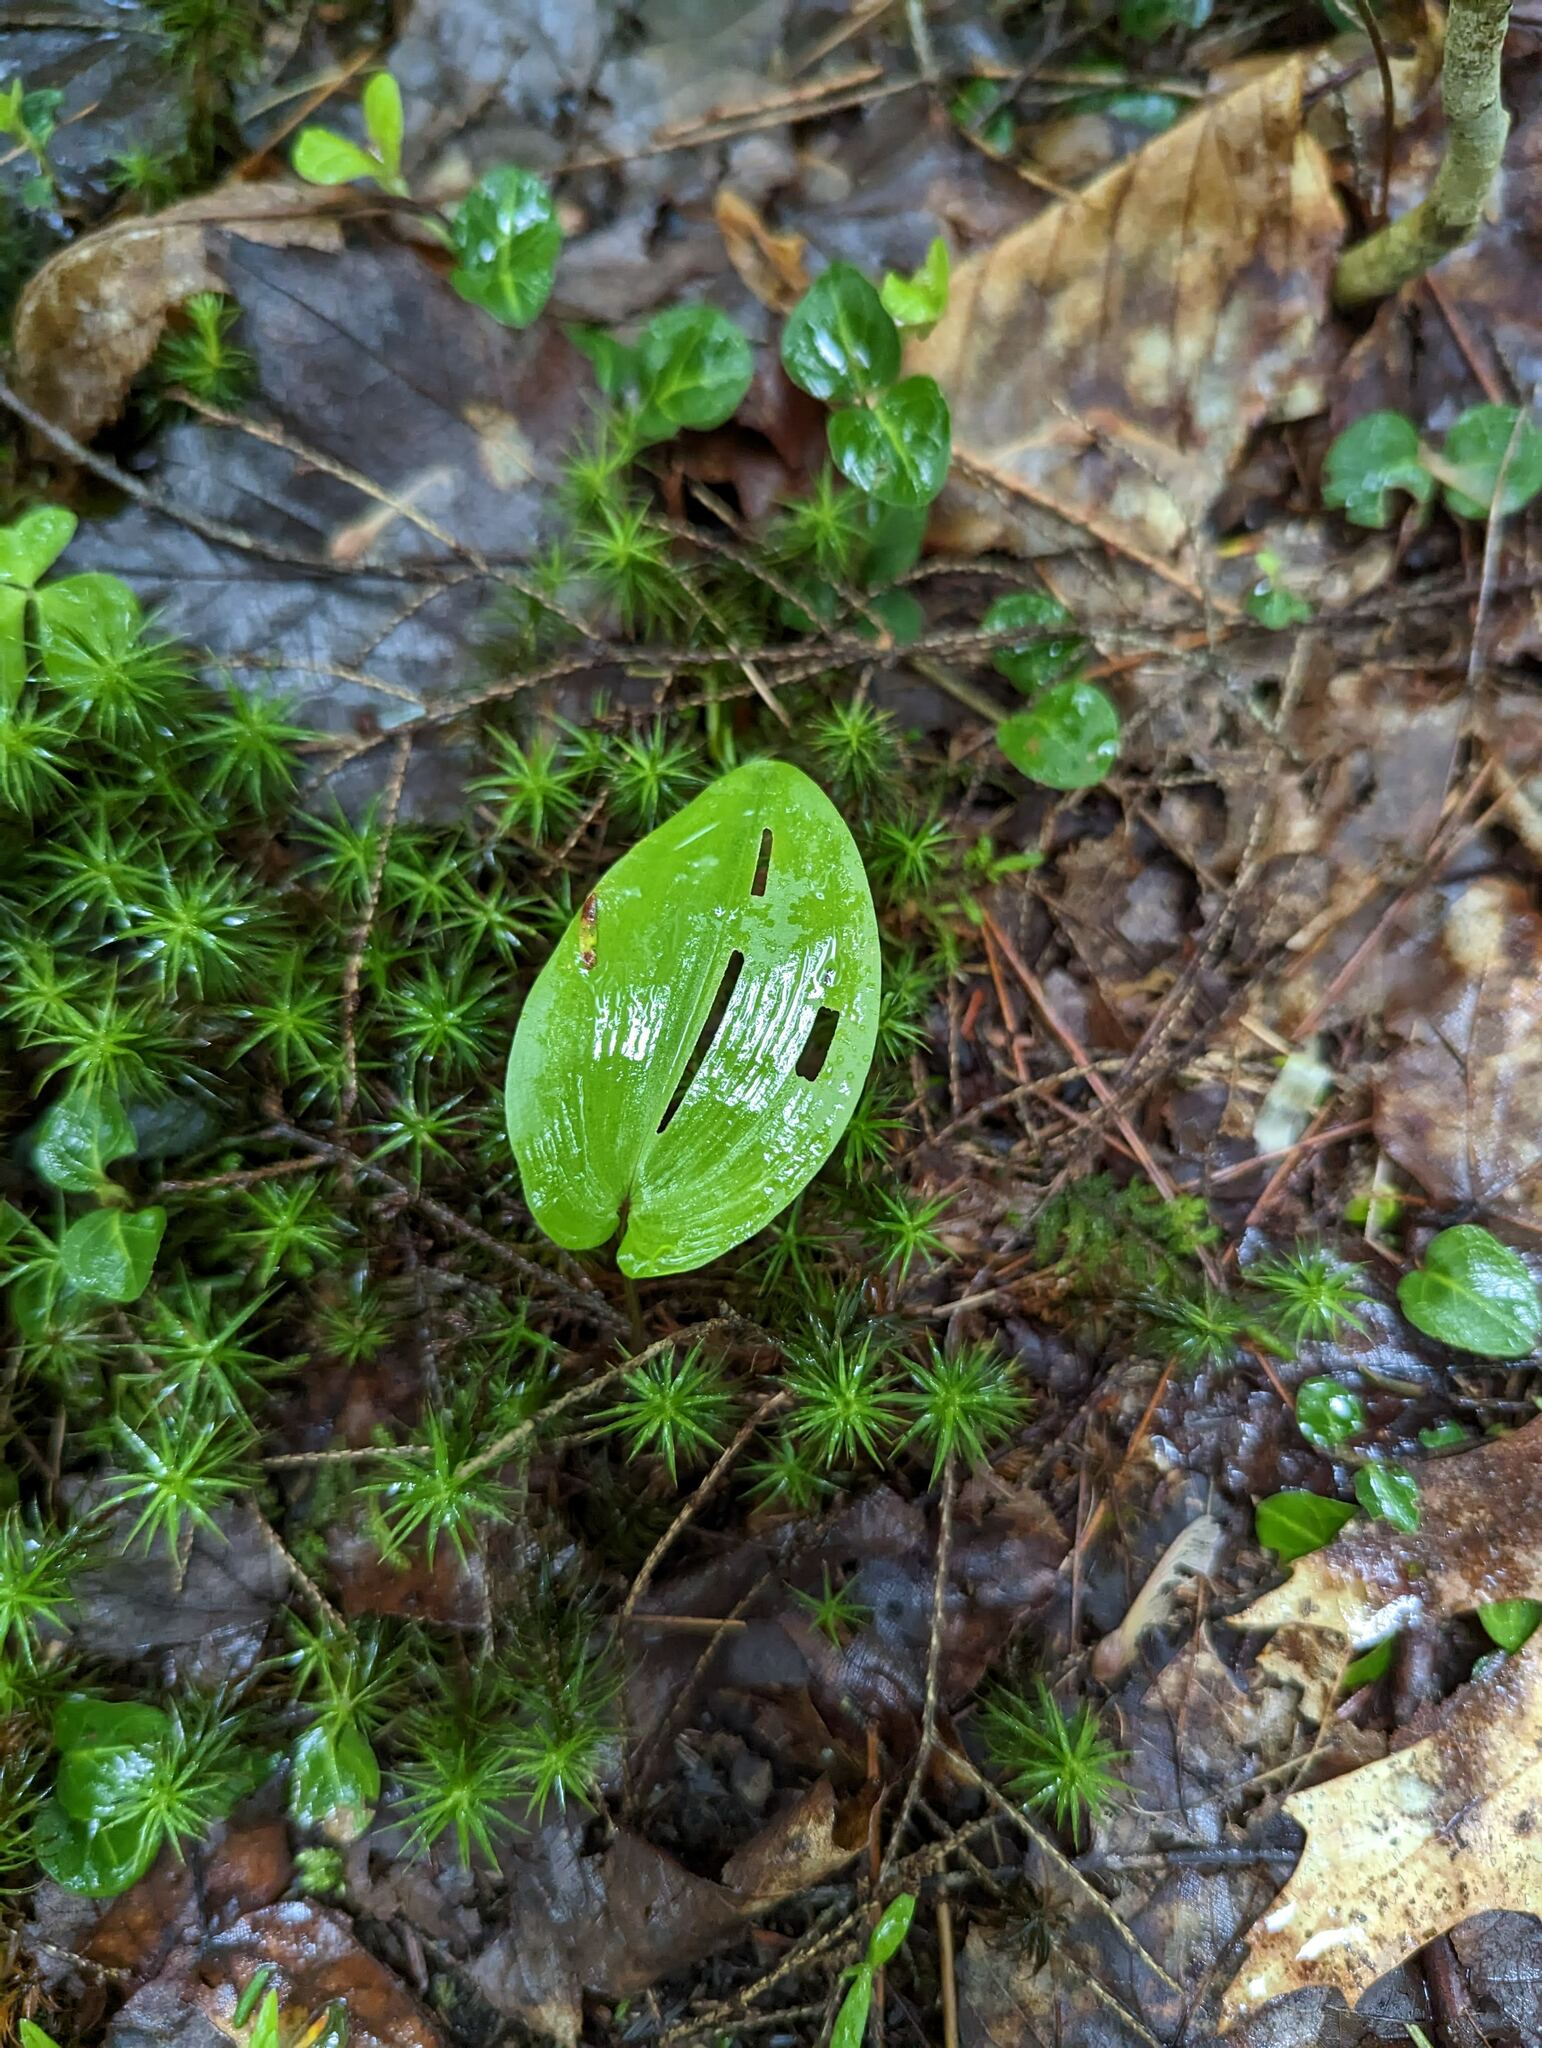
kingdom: Plantae
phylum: Tracheophyta
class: Liliopsida
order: Asparagales
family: Asparagaceae
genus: Maianthemum
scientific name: Maianthemum canadense
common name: False lily-of-the-valley
